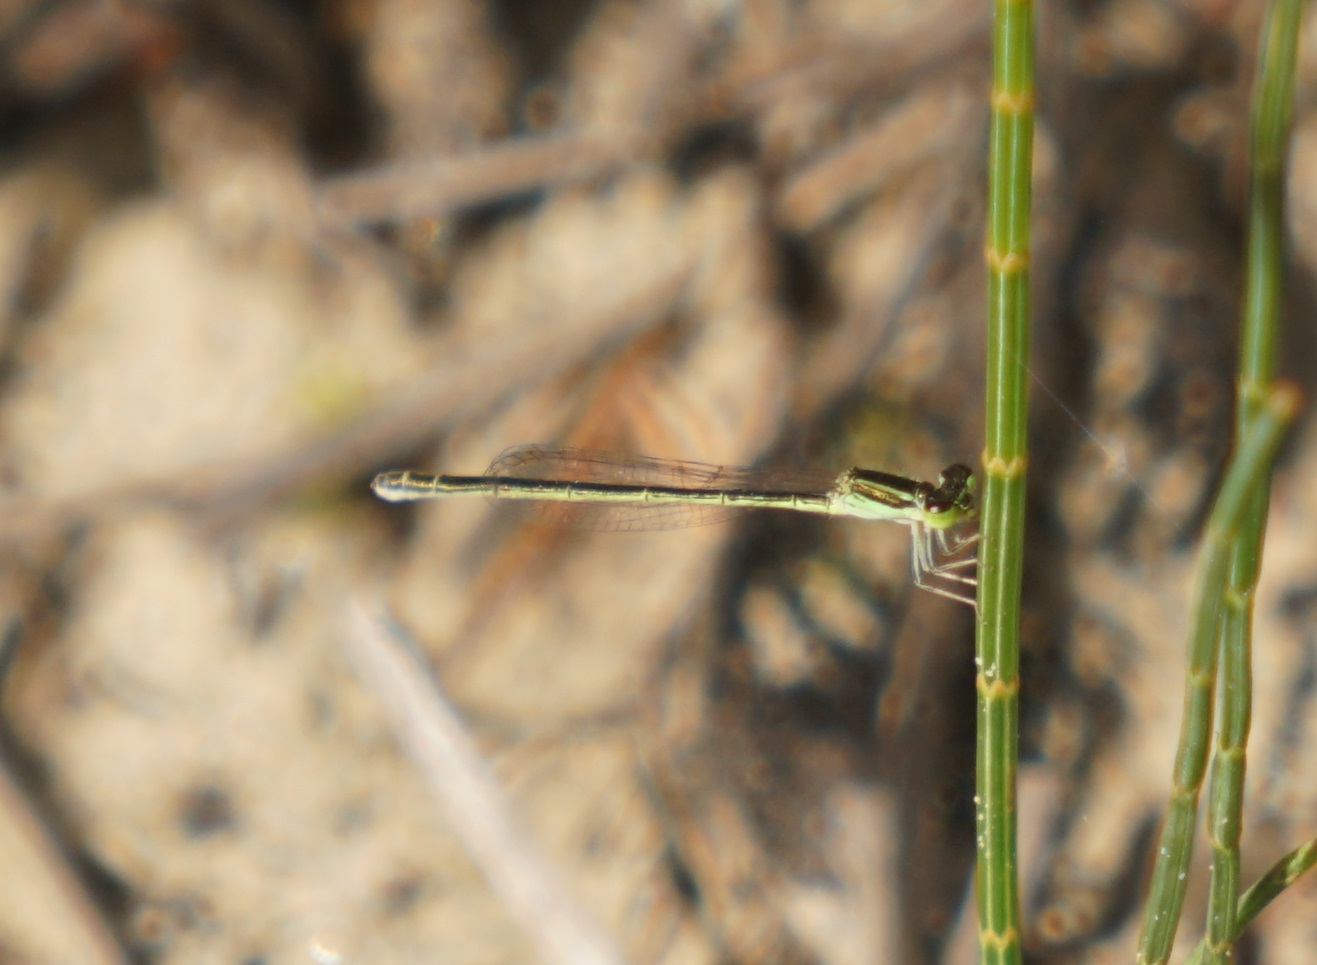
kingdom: Animalia
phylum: Arthropoda
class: Insecta
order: Odonata
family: Coenagrionidae
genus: Ischnura
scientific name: Ischnura aurora
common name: Gossamer damselfly
